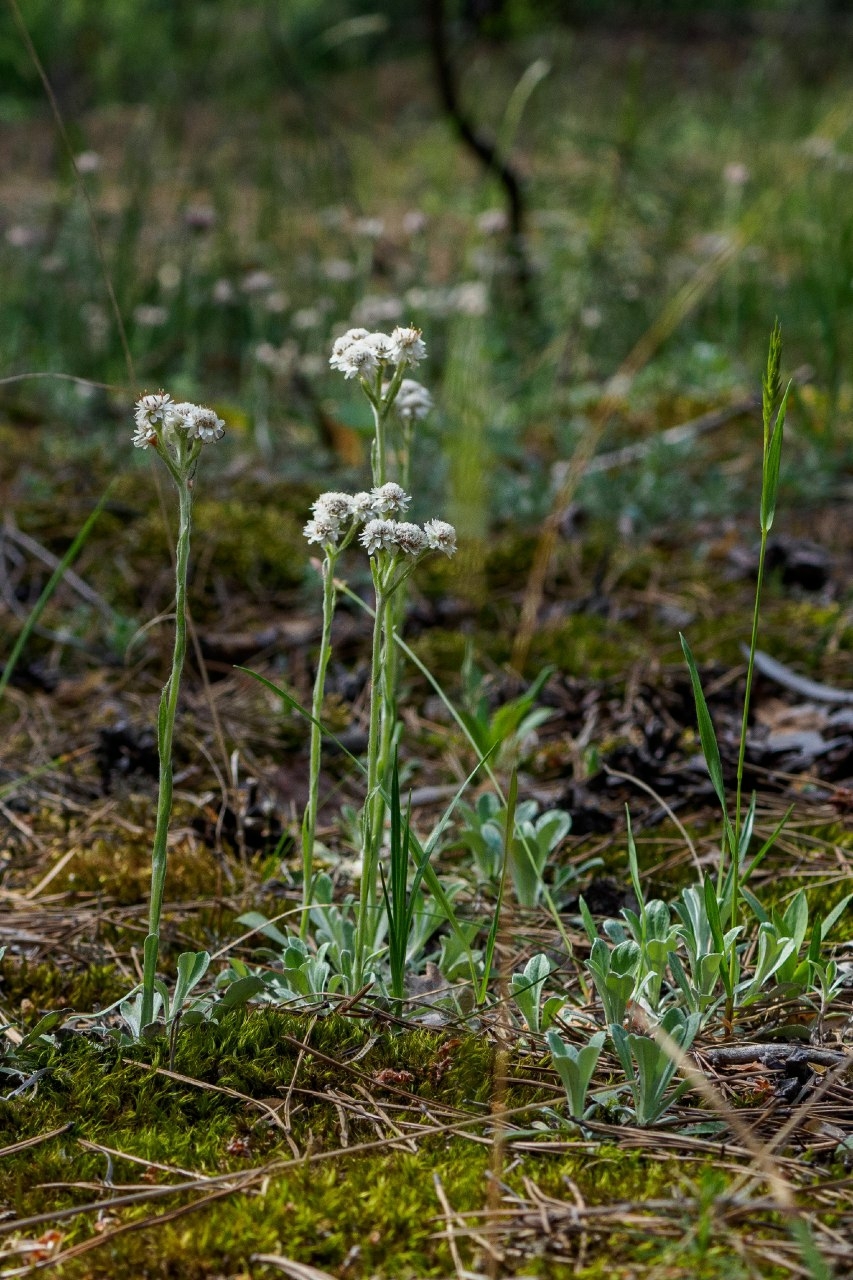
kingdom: Plantae
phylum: Tracheophyta
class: Magnoliopsida
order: Asterales
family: Asteraceae
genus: Antennaria
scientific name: Antennaria dioica
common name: Mountain everlasting
